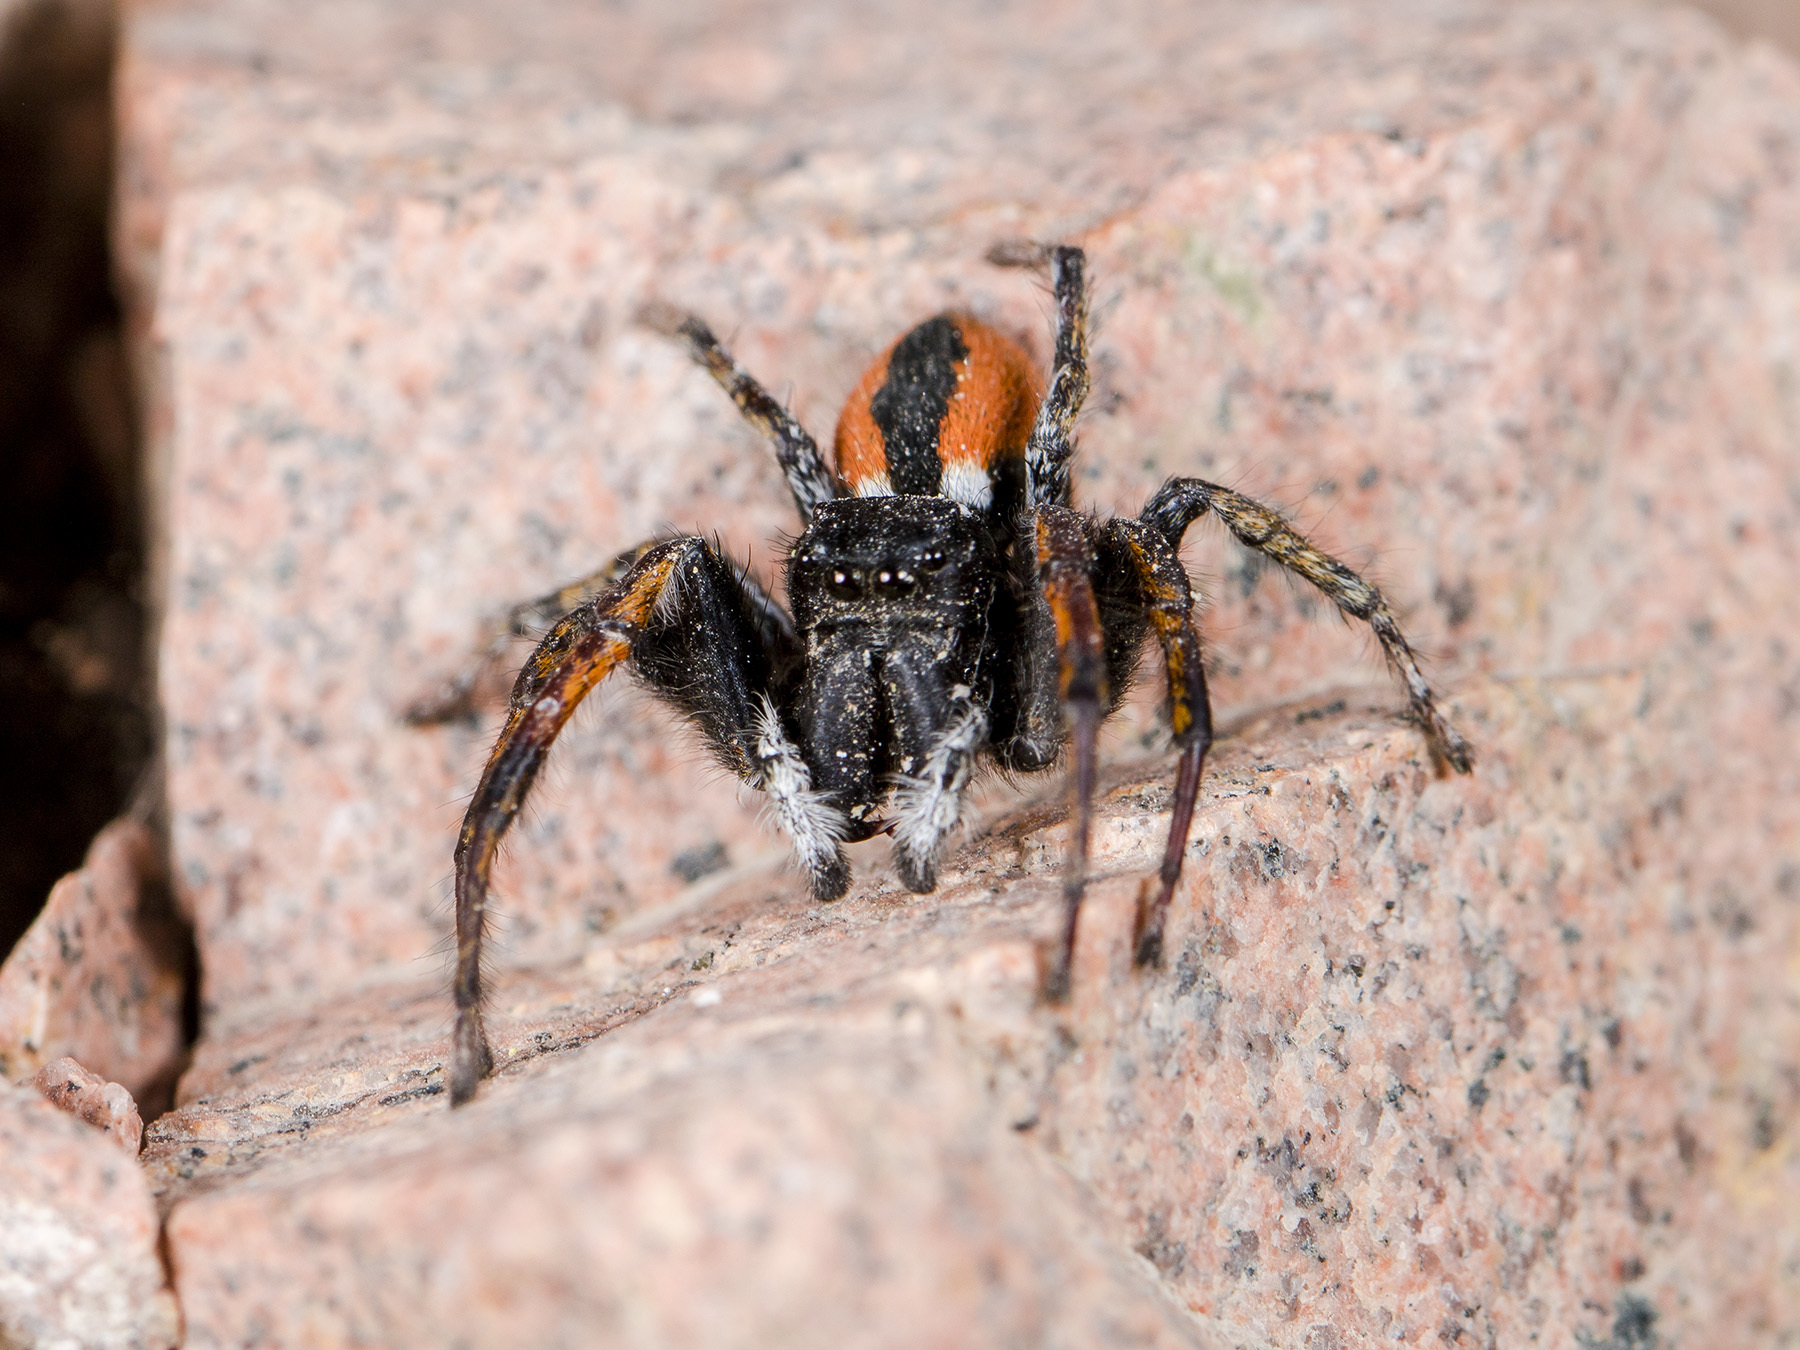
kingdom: Animalia
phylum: Arthropoda
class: Arachnida
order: Araneae
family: Salticidae
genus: Philaeus
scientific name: Philaeus chrysops
